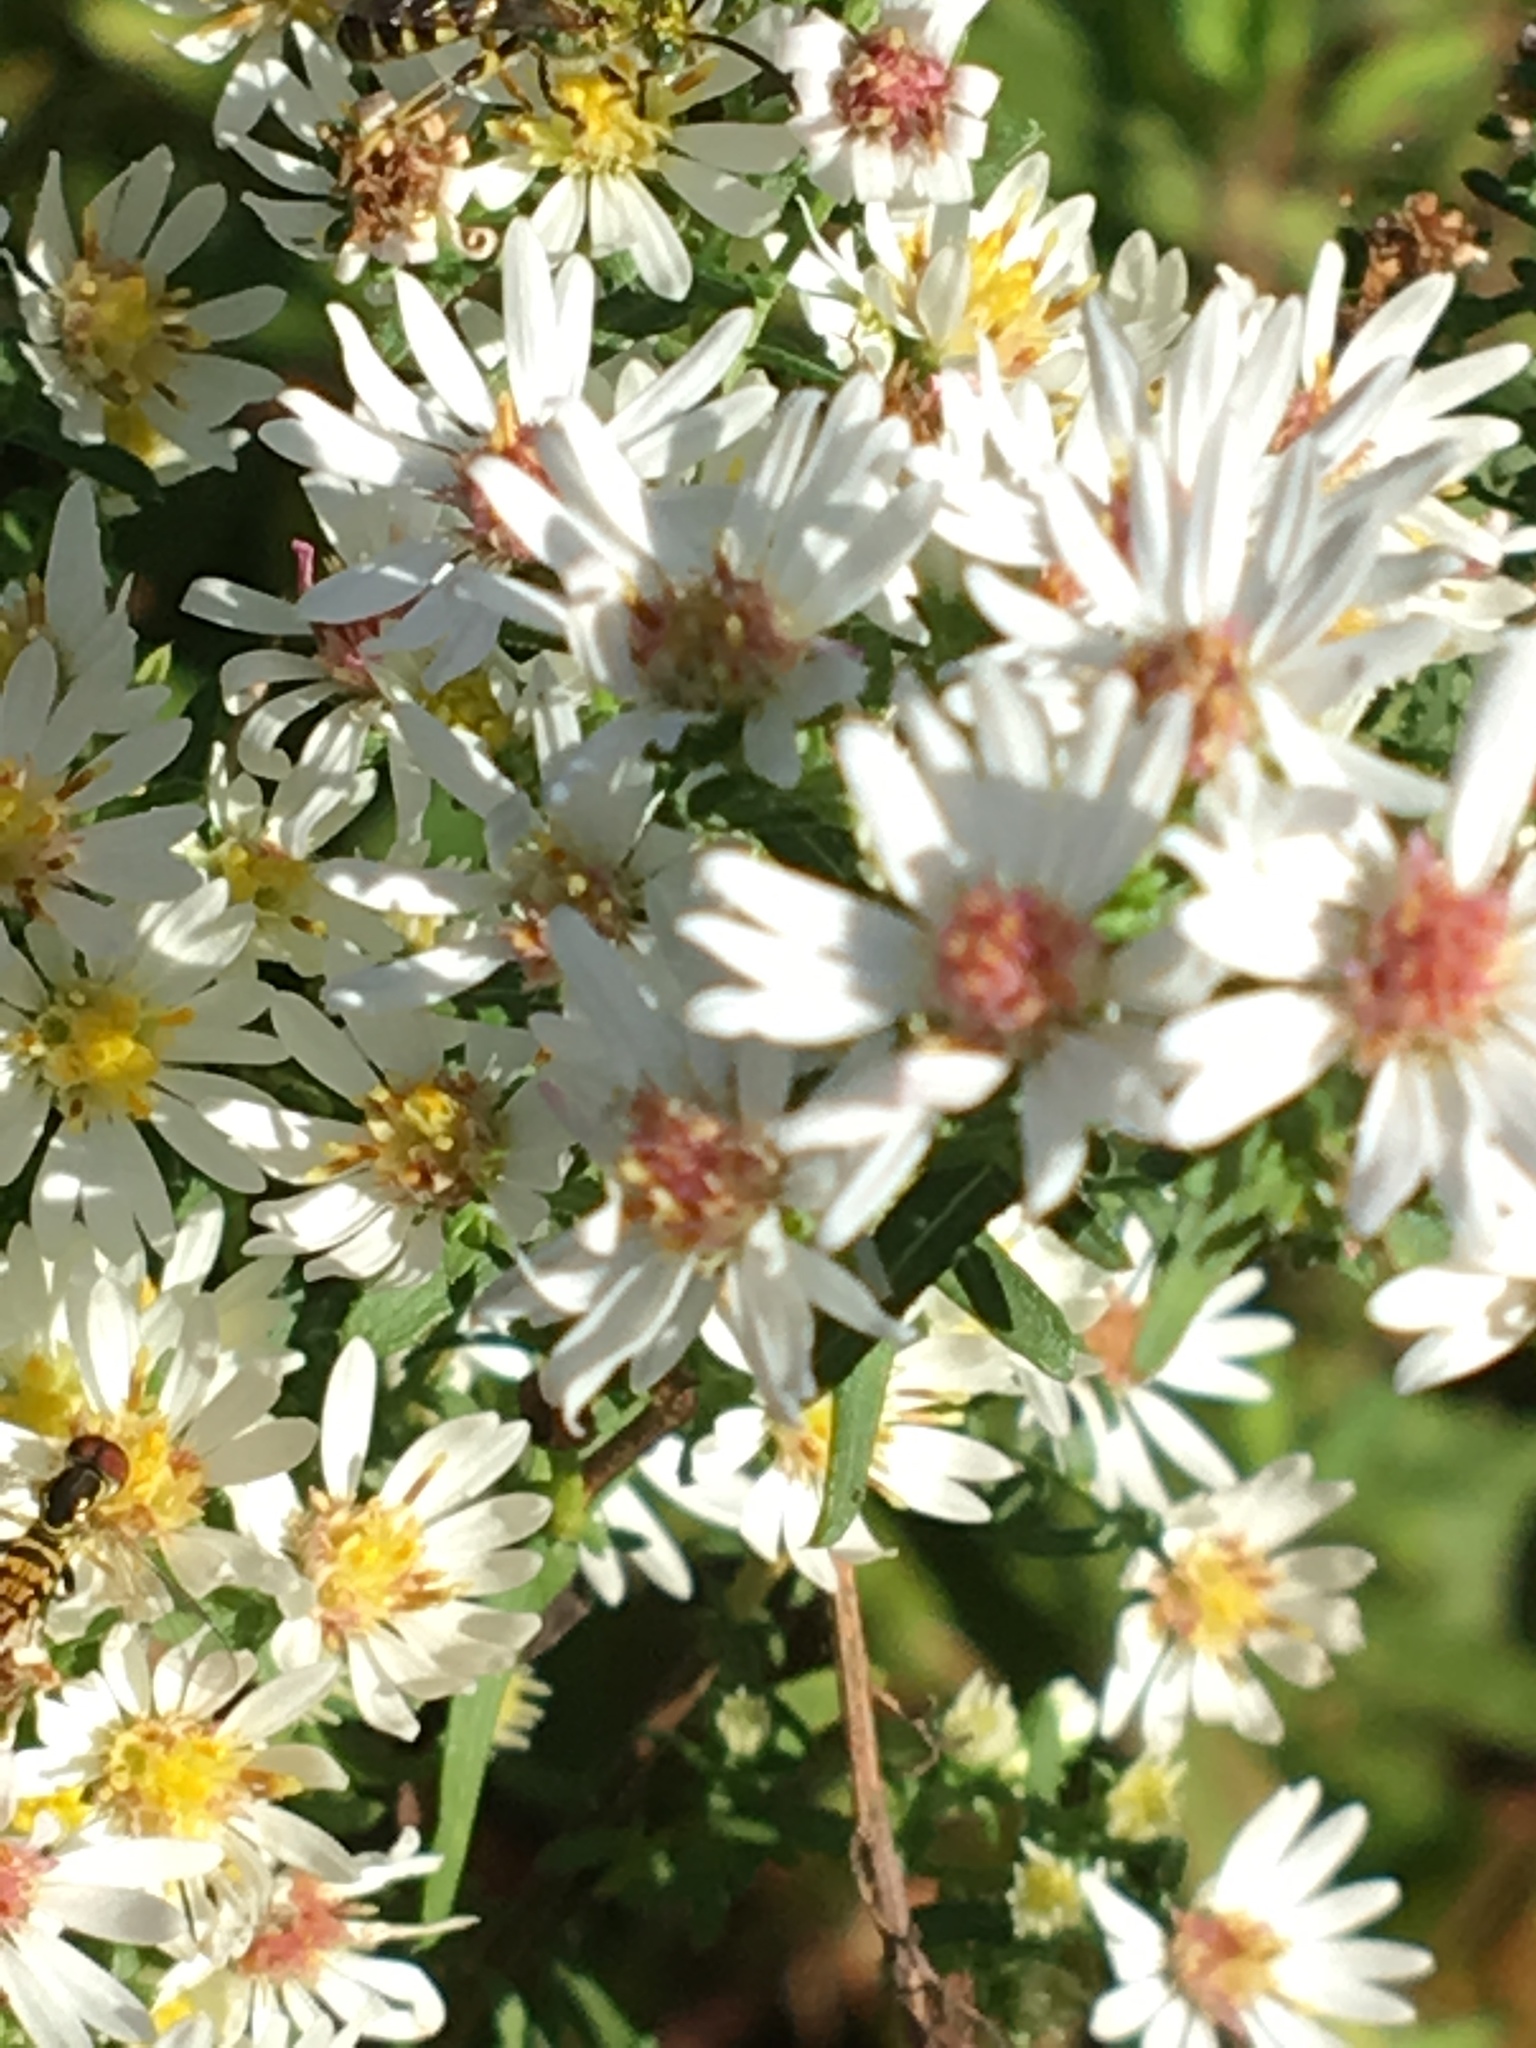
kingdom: Animalia
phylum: Arthropoda
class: Insecta
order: Hymenoptera
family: Halictidae
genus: Agapostemon
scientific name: Agapostemon virescens
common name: Bicolored striped sweat bee
